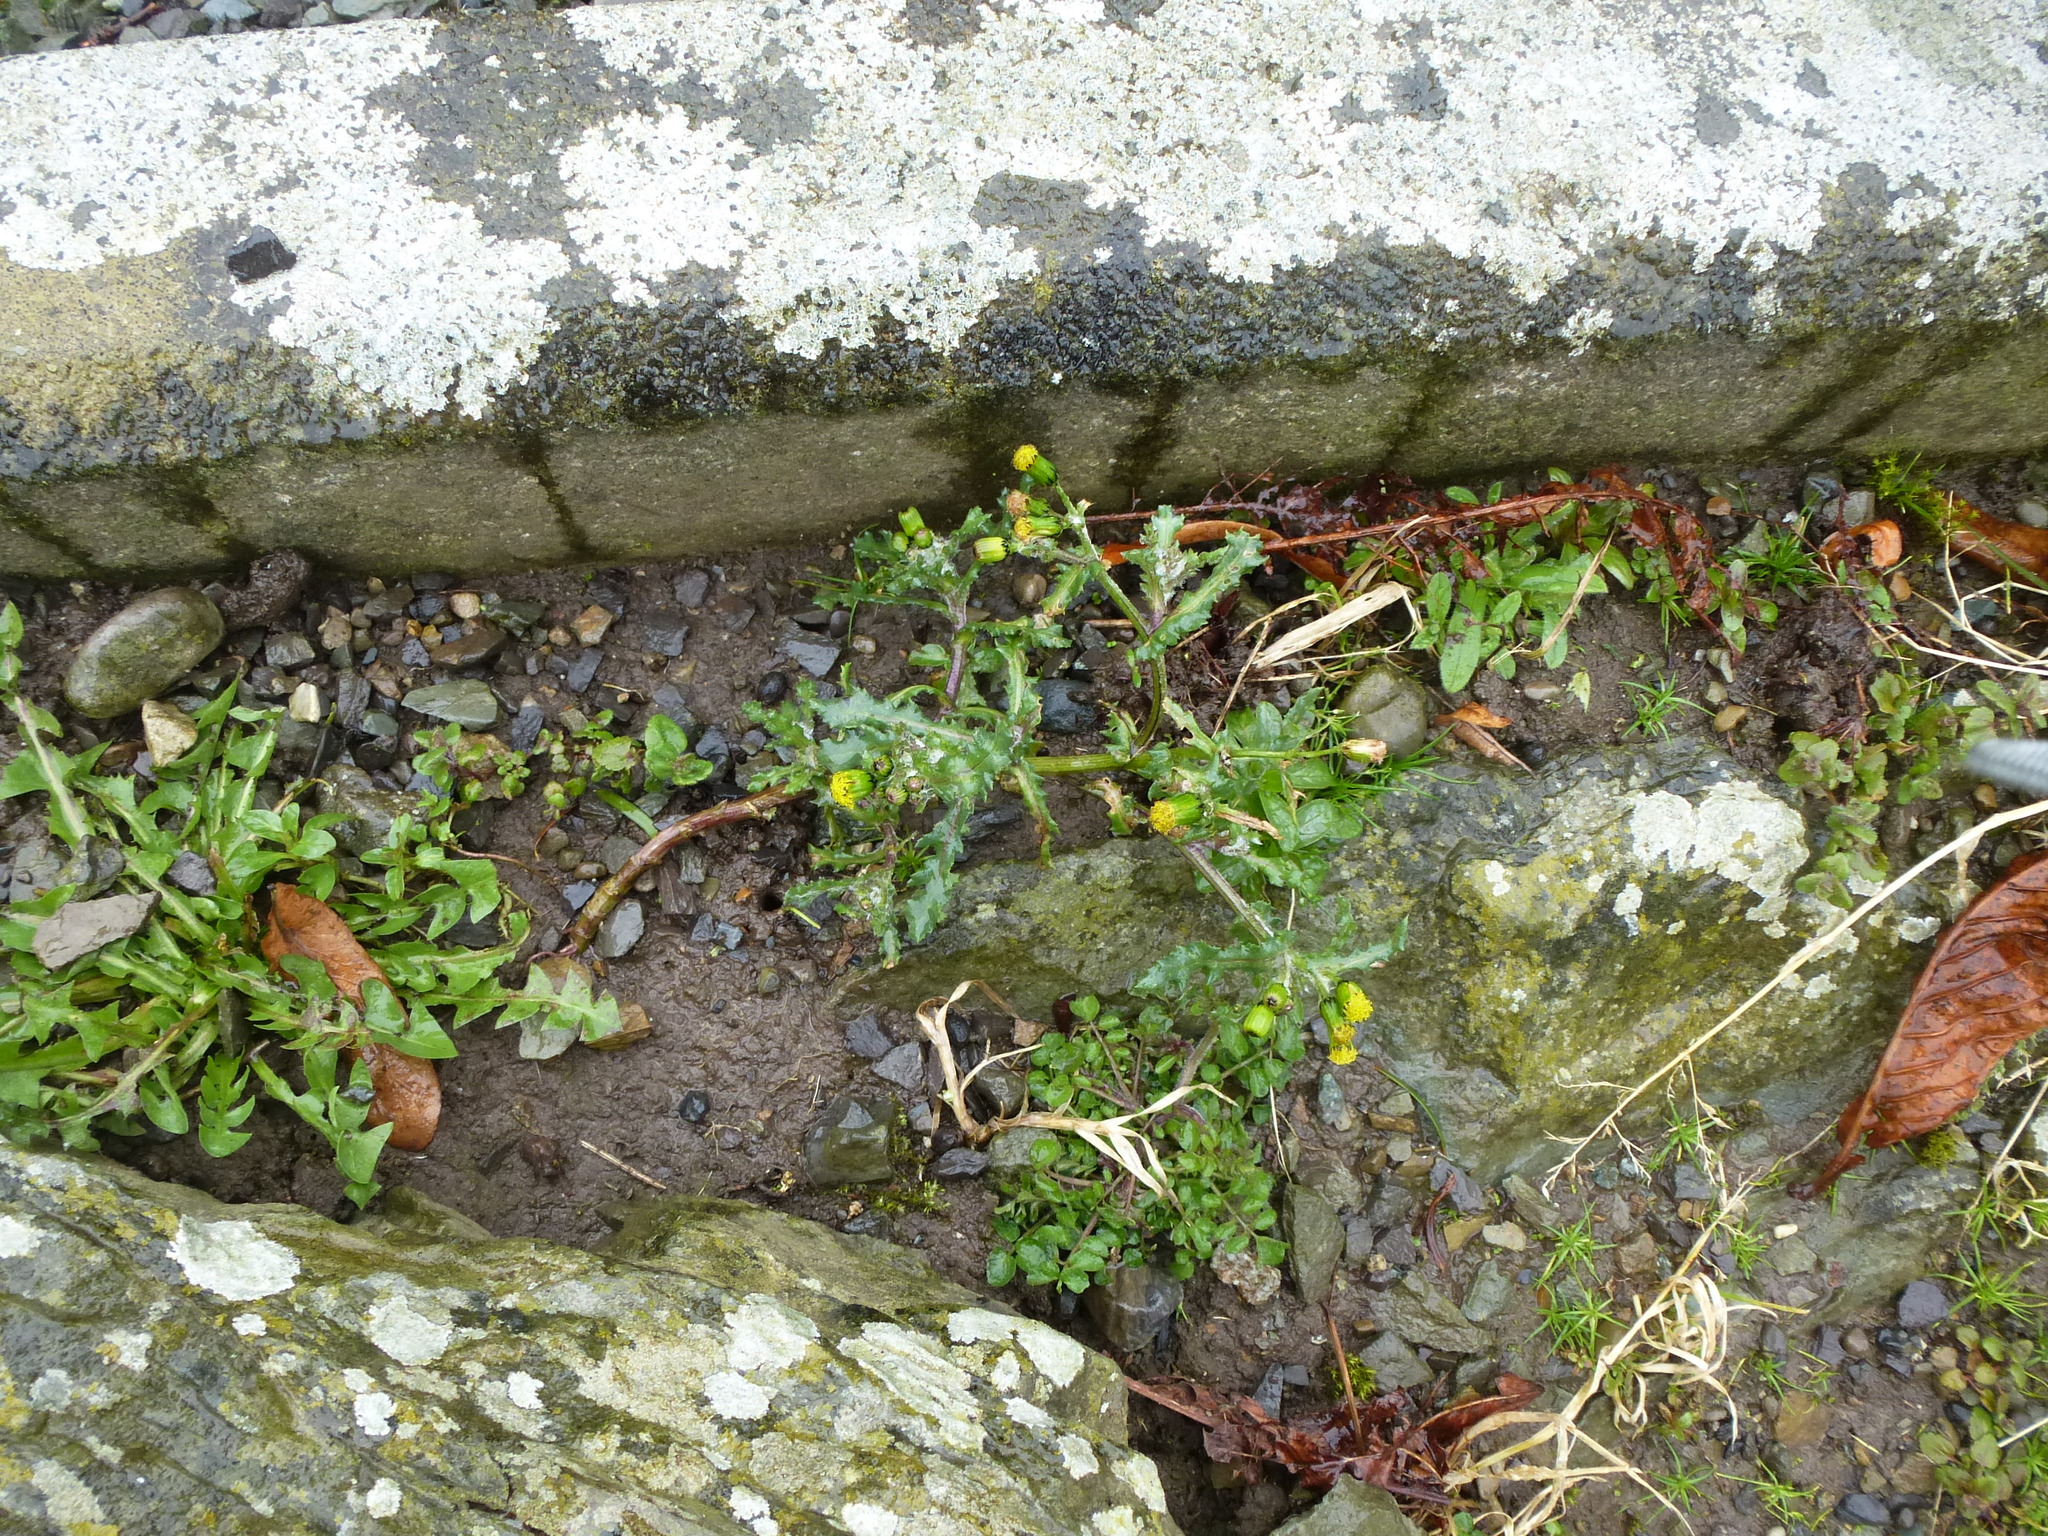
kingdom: Plantae
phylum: Tracheophyta
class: Magnoliopsida
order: Asterales
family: Asteraceae
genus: Senecio
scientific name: Senecio vulgaris
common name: Old-man-in-the-spring
